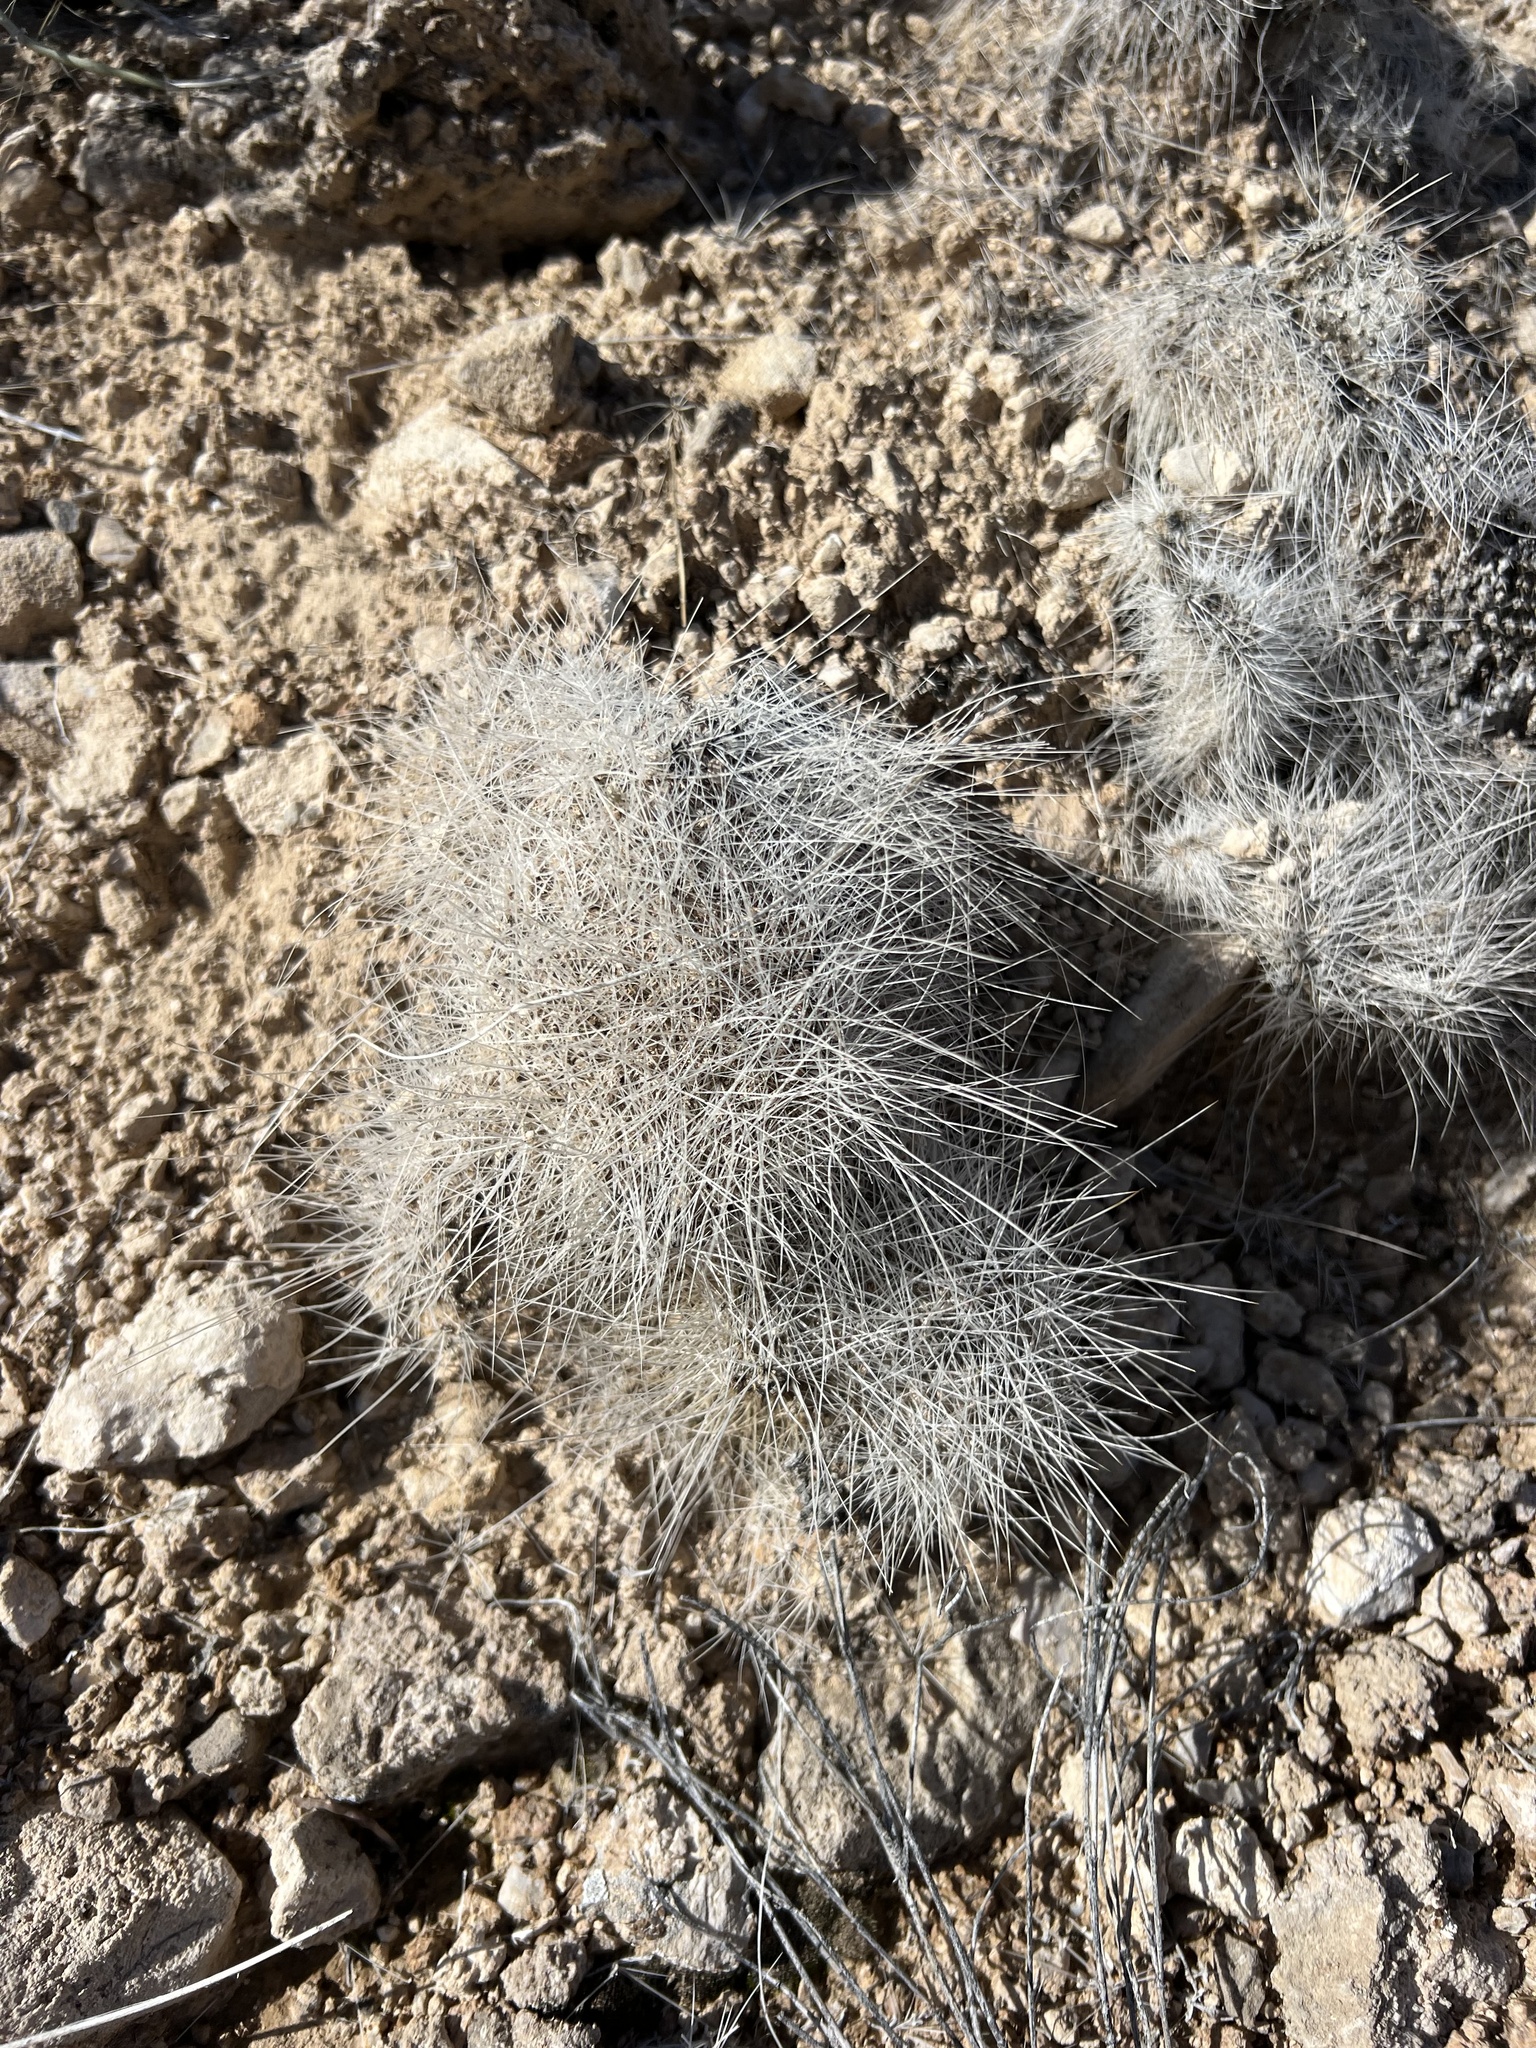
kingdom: Plantae
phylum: Tracheophyta
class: Magnoliopsida
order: Caryophyllales
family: Cactaceae
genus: Opuntia
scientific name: Opuntia polyacantha
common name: Plains prickly-pear
